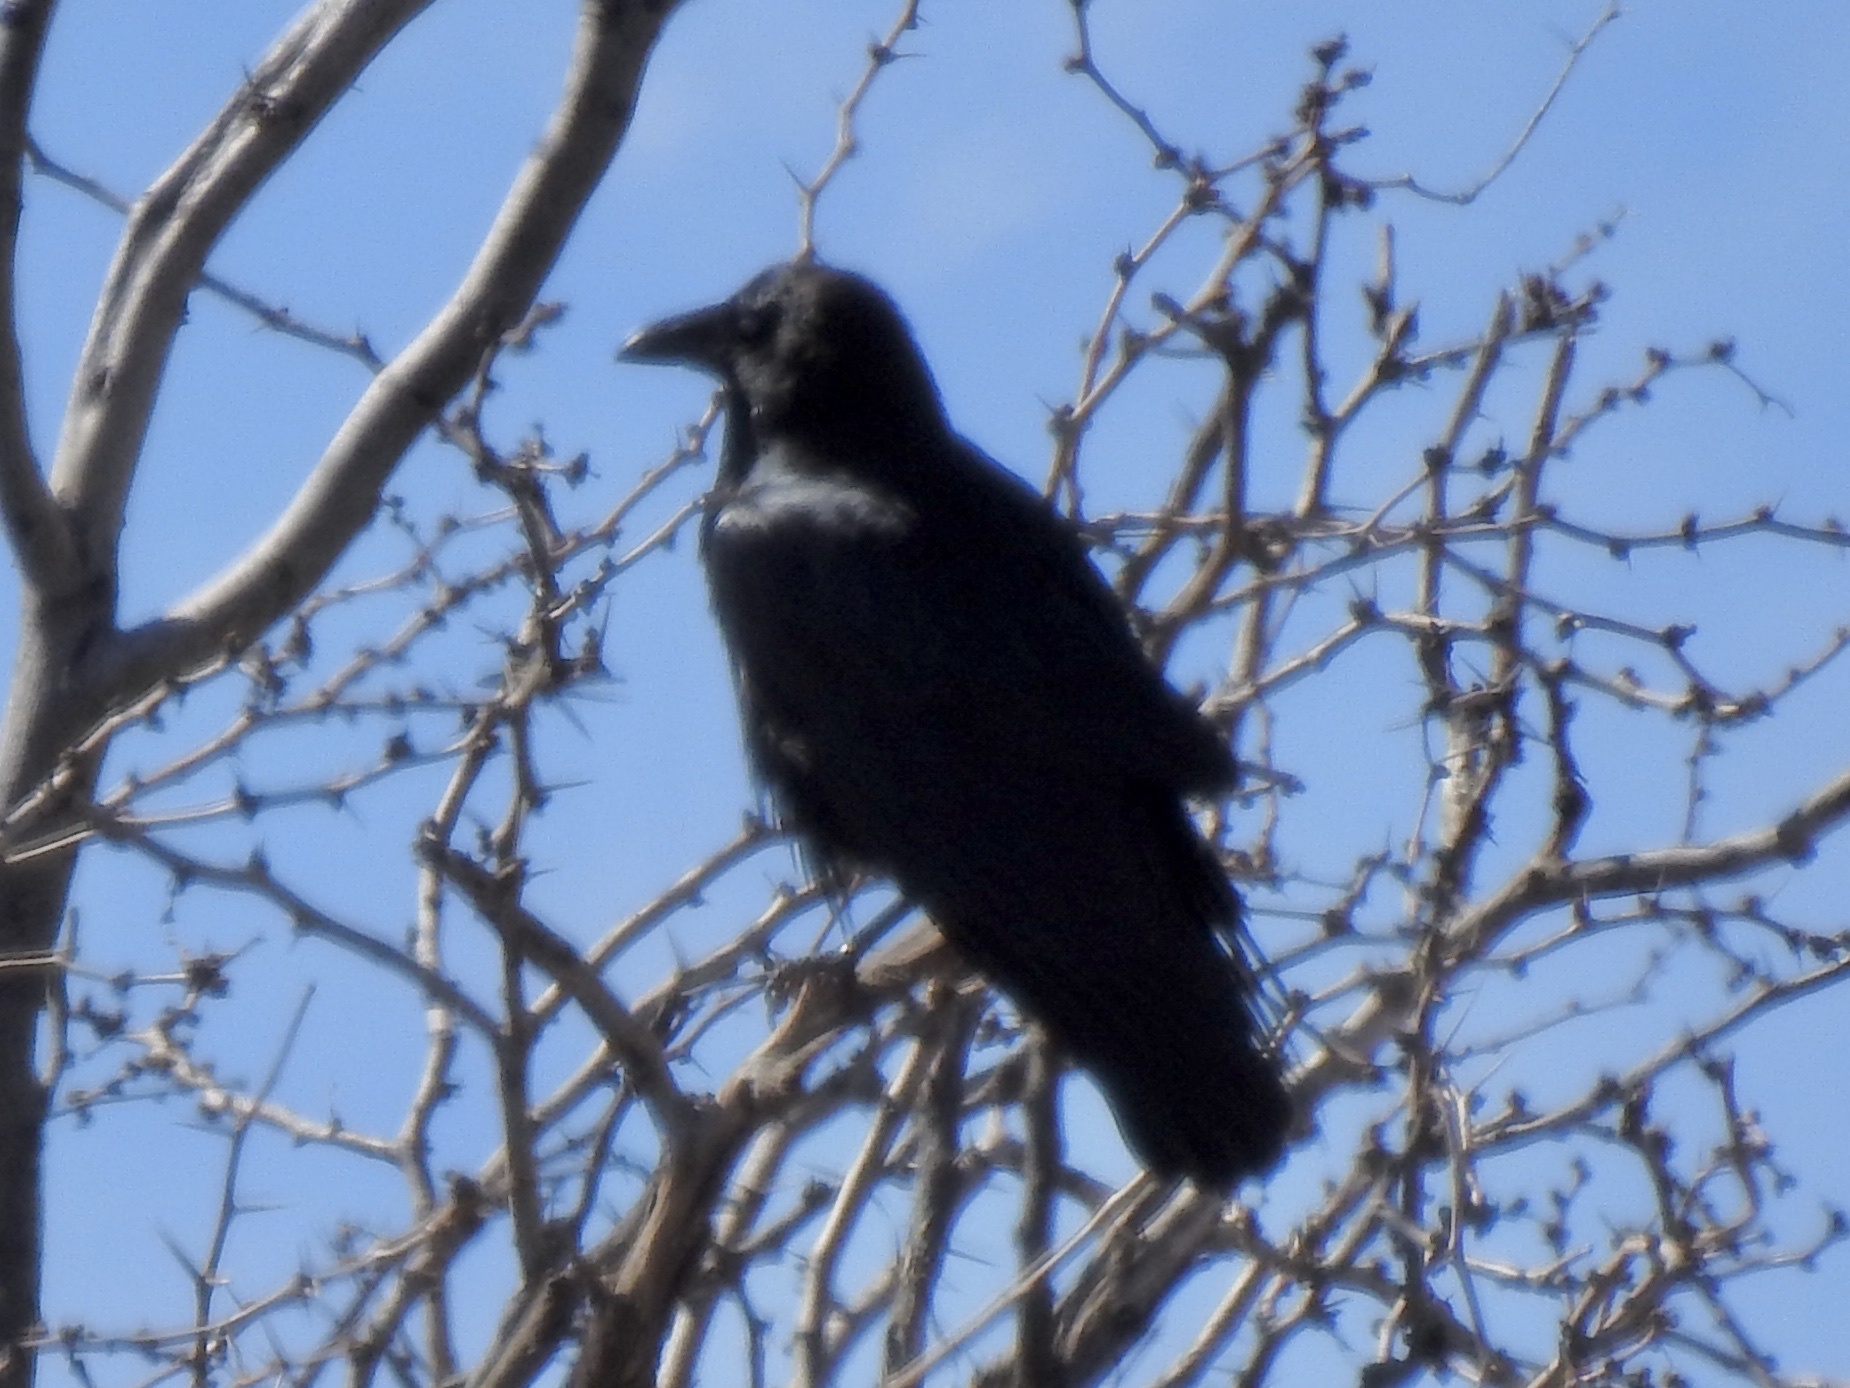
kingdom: Animalia
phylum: Chordata
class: Aves
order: Passeriformes
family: Corvidae
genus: Corvus
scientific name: Corvus corax
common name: Common raven
